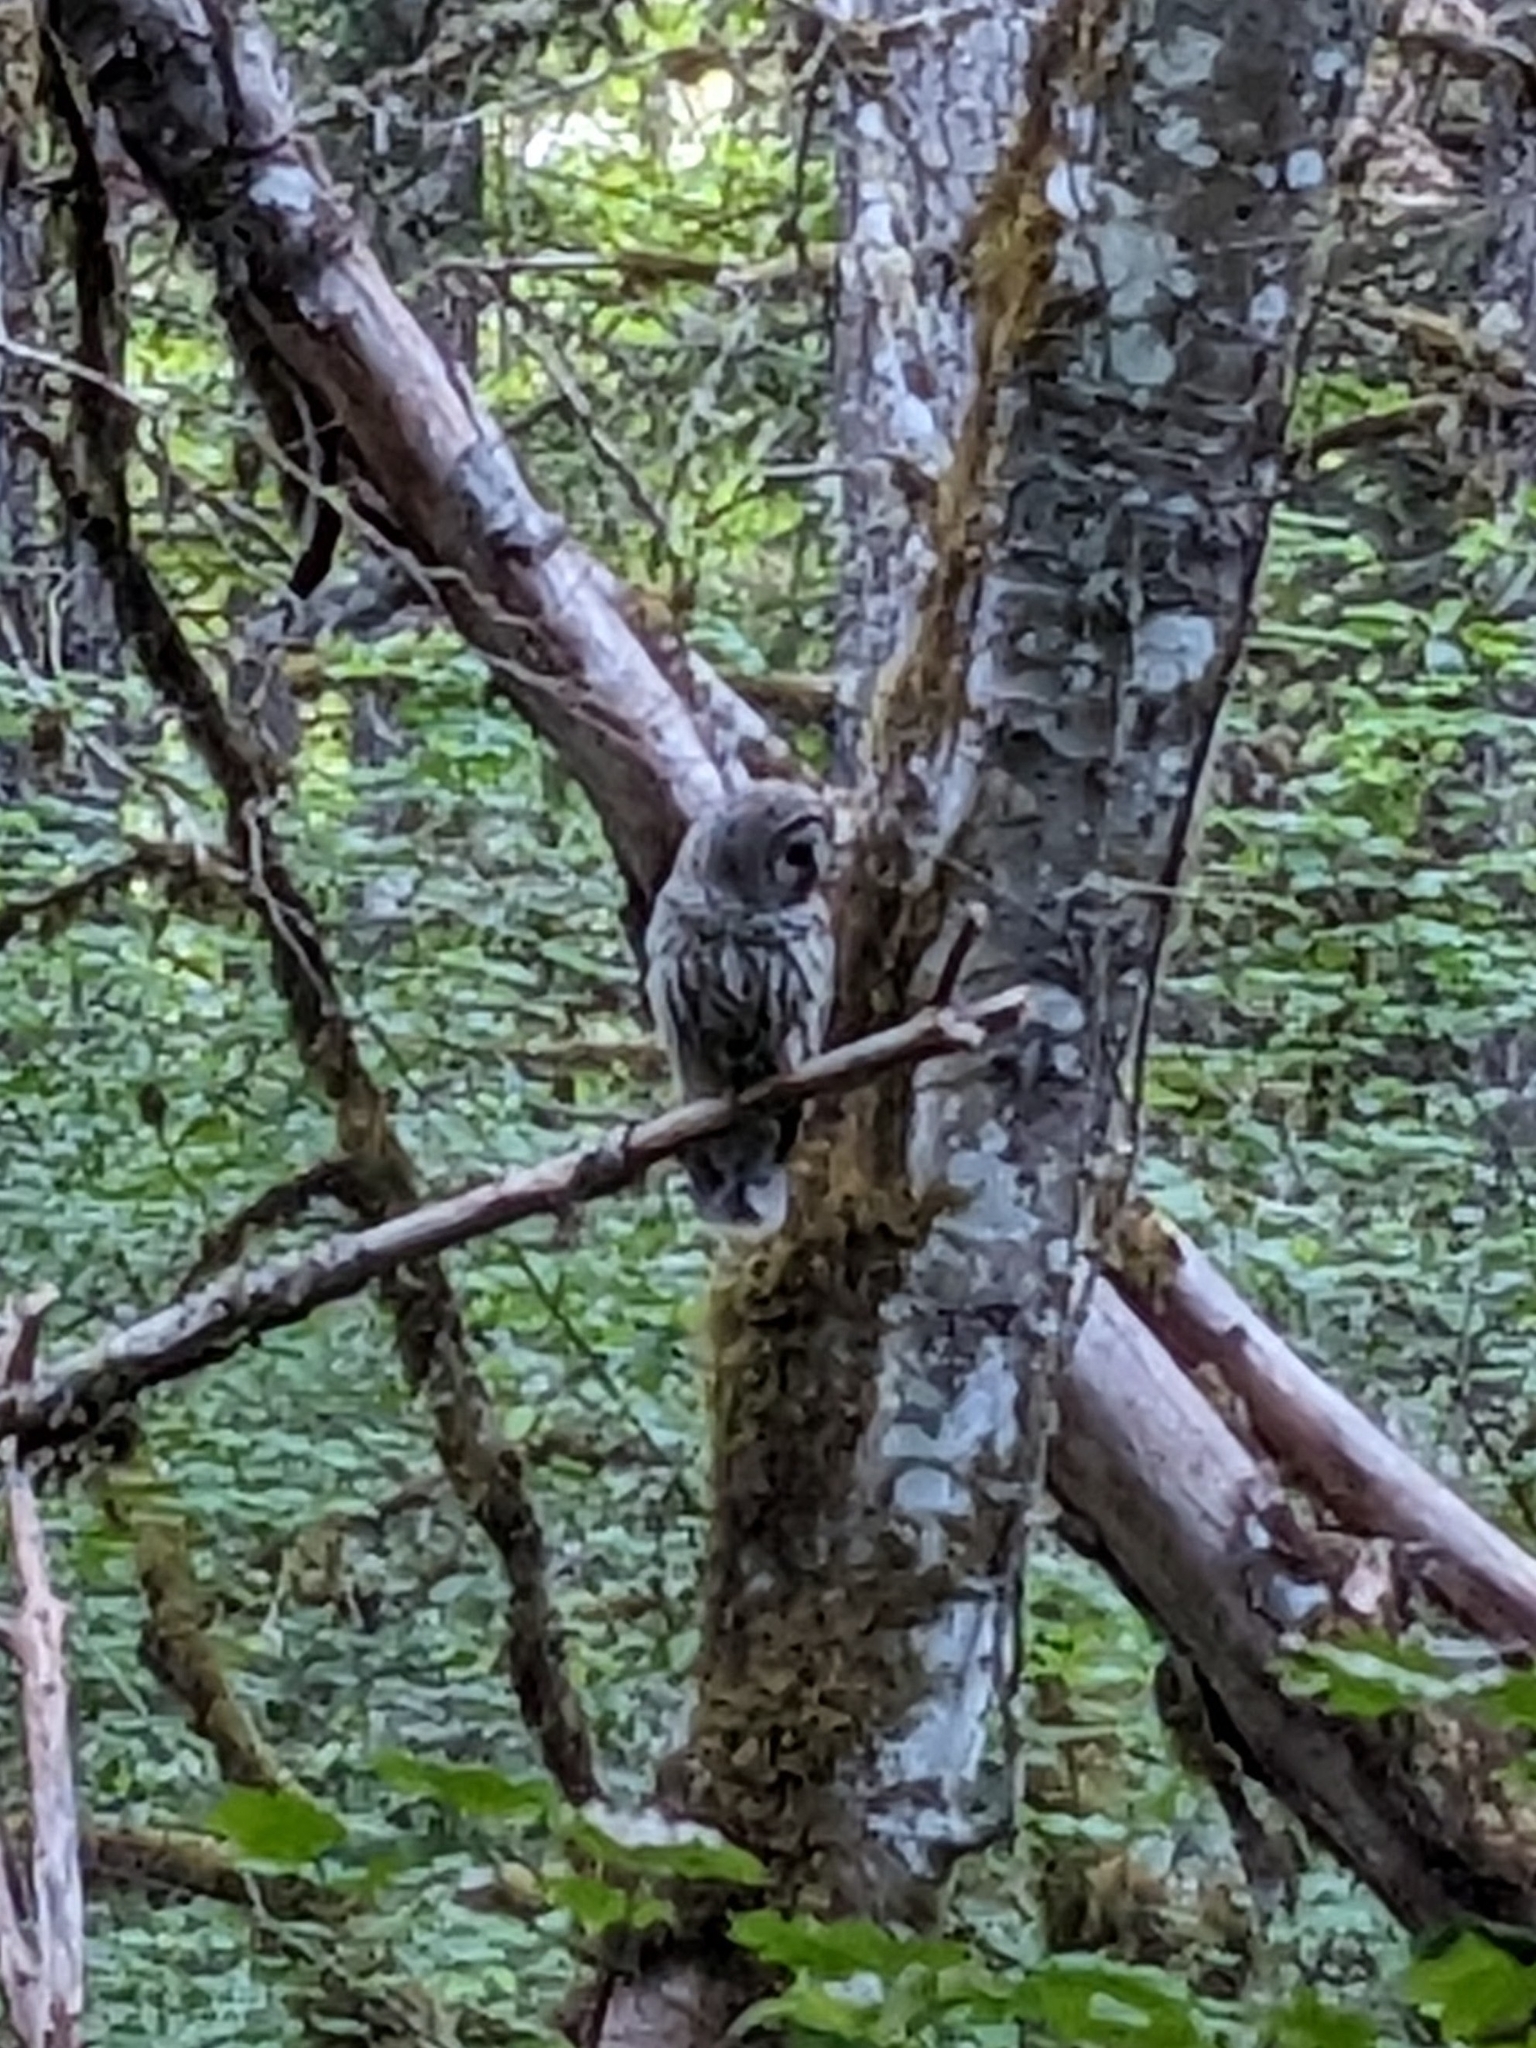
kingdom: Animalia
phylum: Chordata
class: Aves
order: Strigiformes
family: Strigidae
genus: Strix
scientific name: Strix varia
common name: Barred owl
